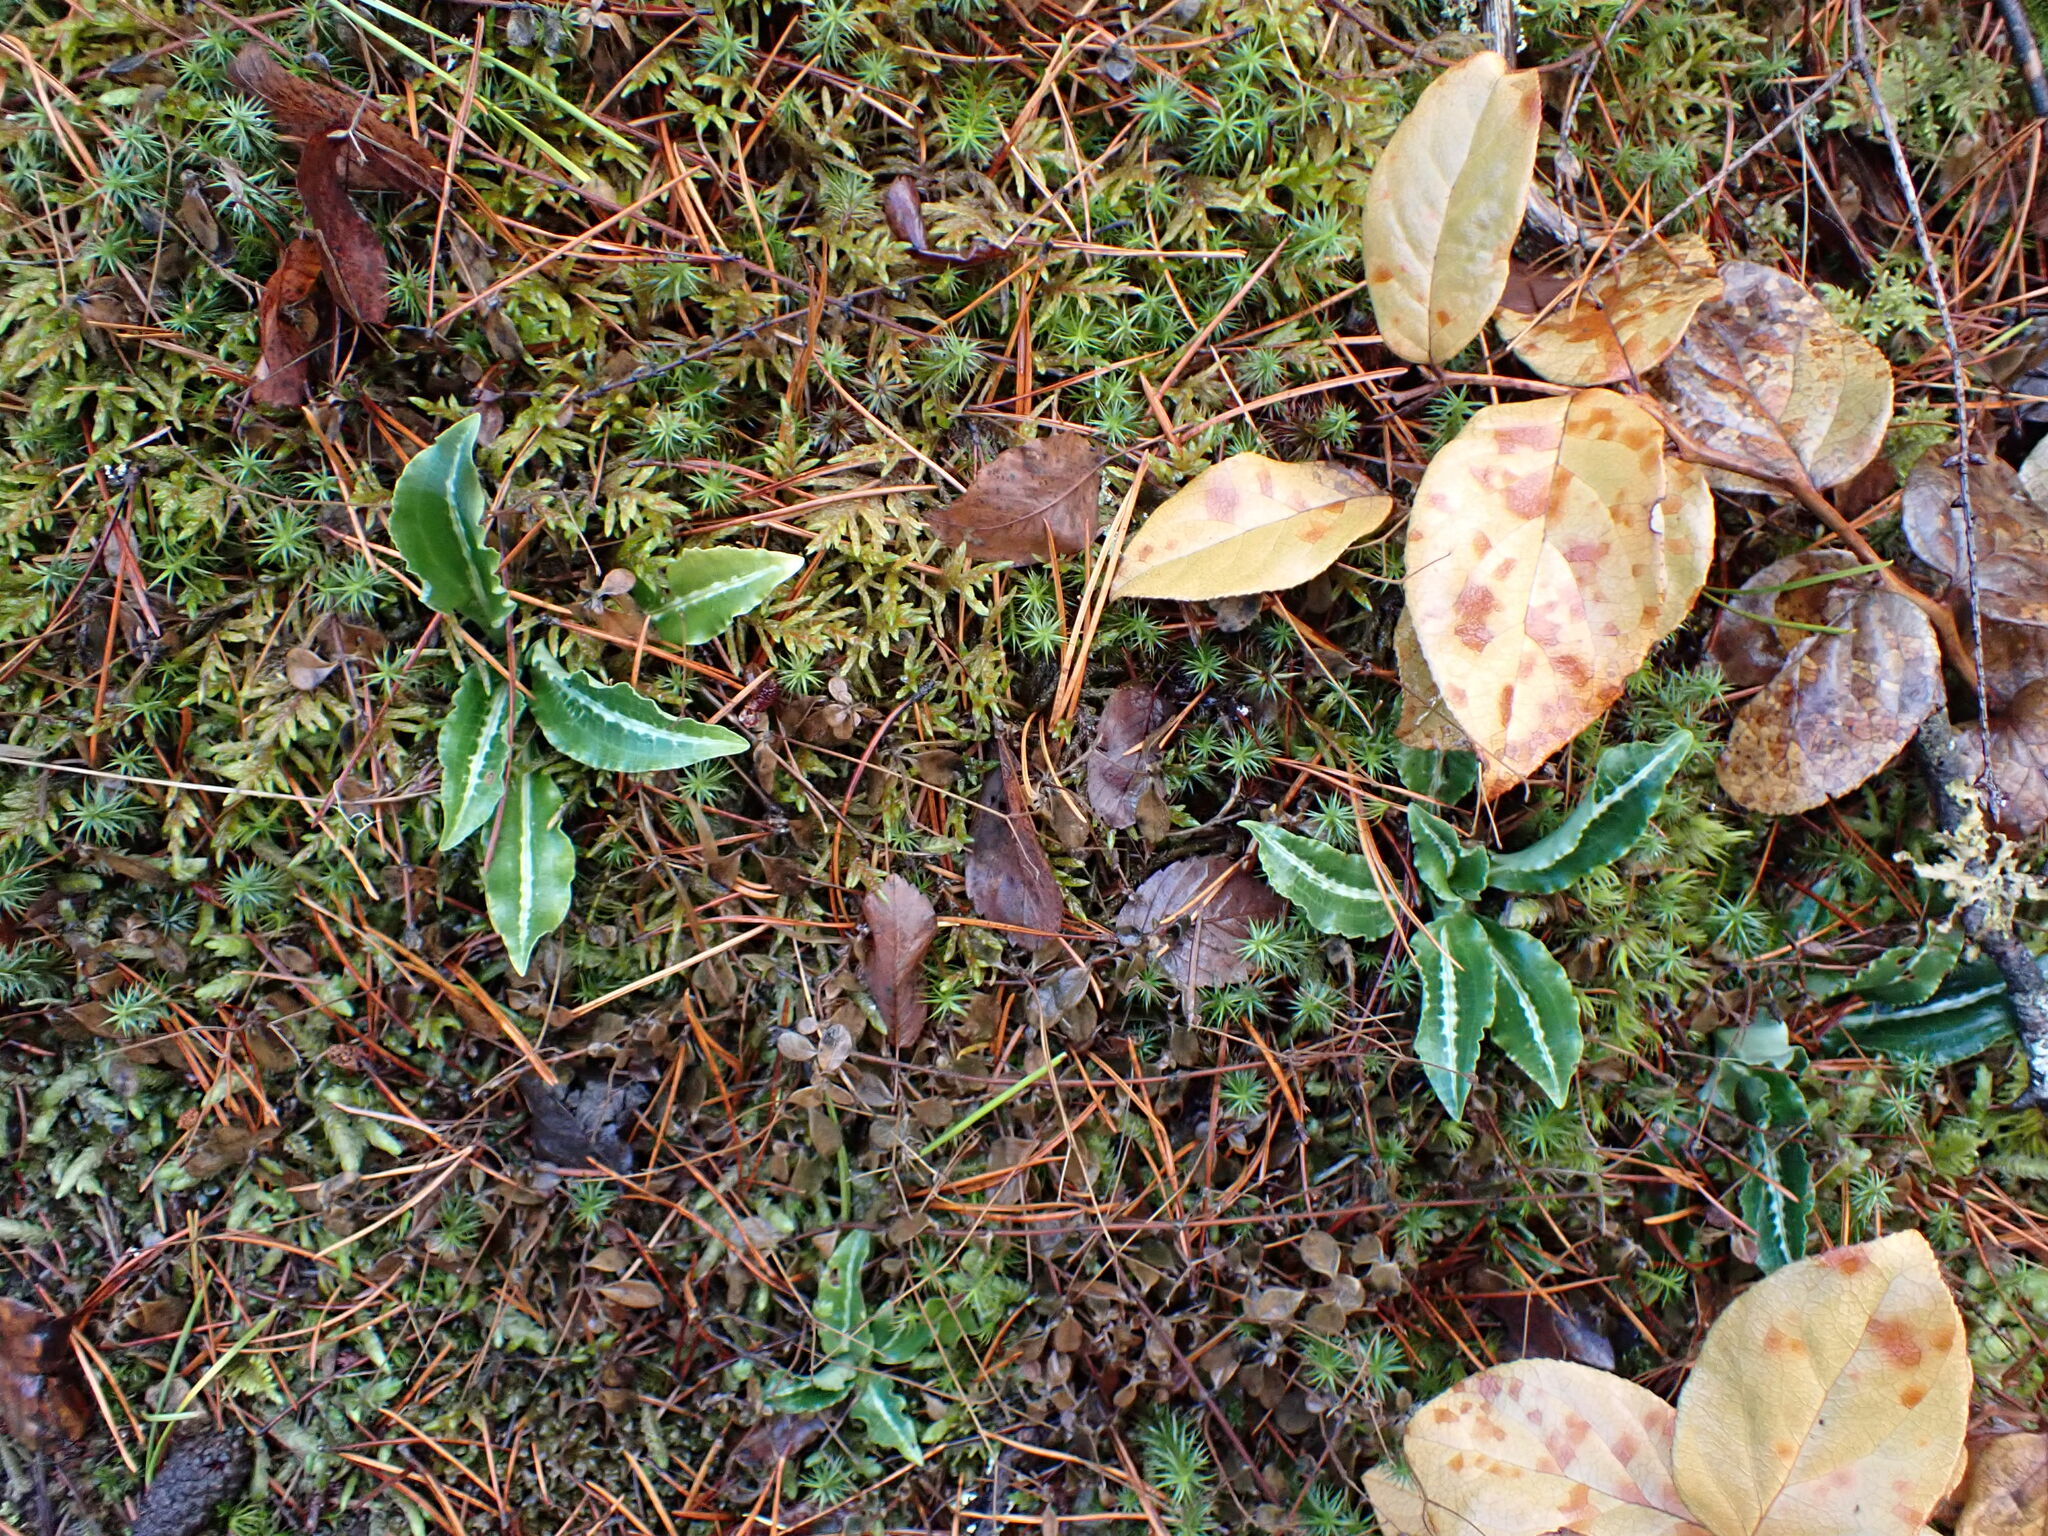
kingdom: Plantae
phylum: Tracheophyta
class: Liliopsida
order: Asparagales
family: Orchidaceae
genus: Goodyera
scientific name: Goodyera oblongifolia
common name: Giant rattlesnake-plantain
